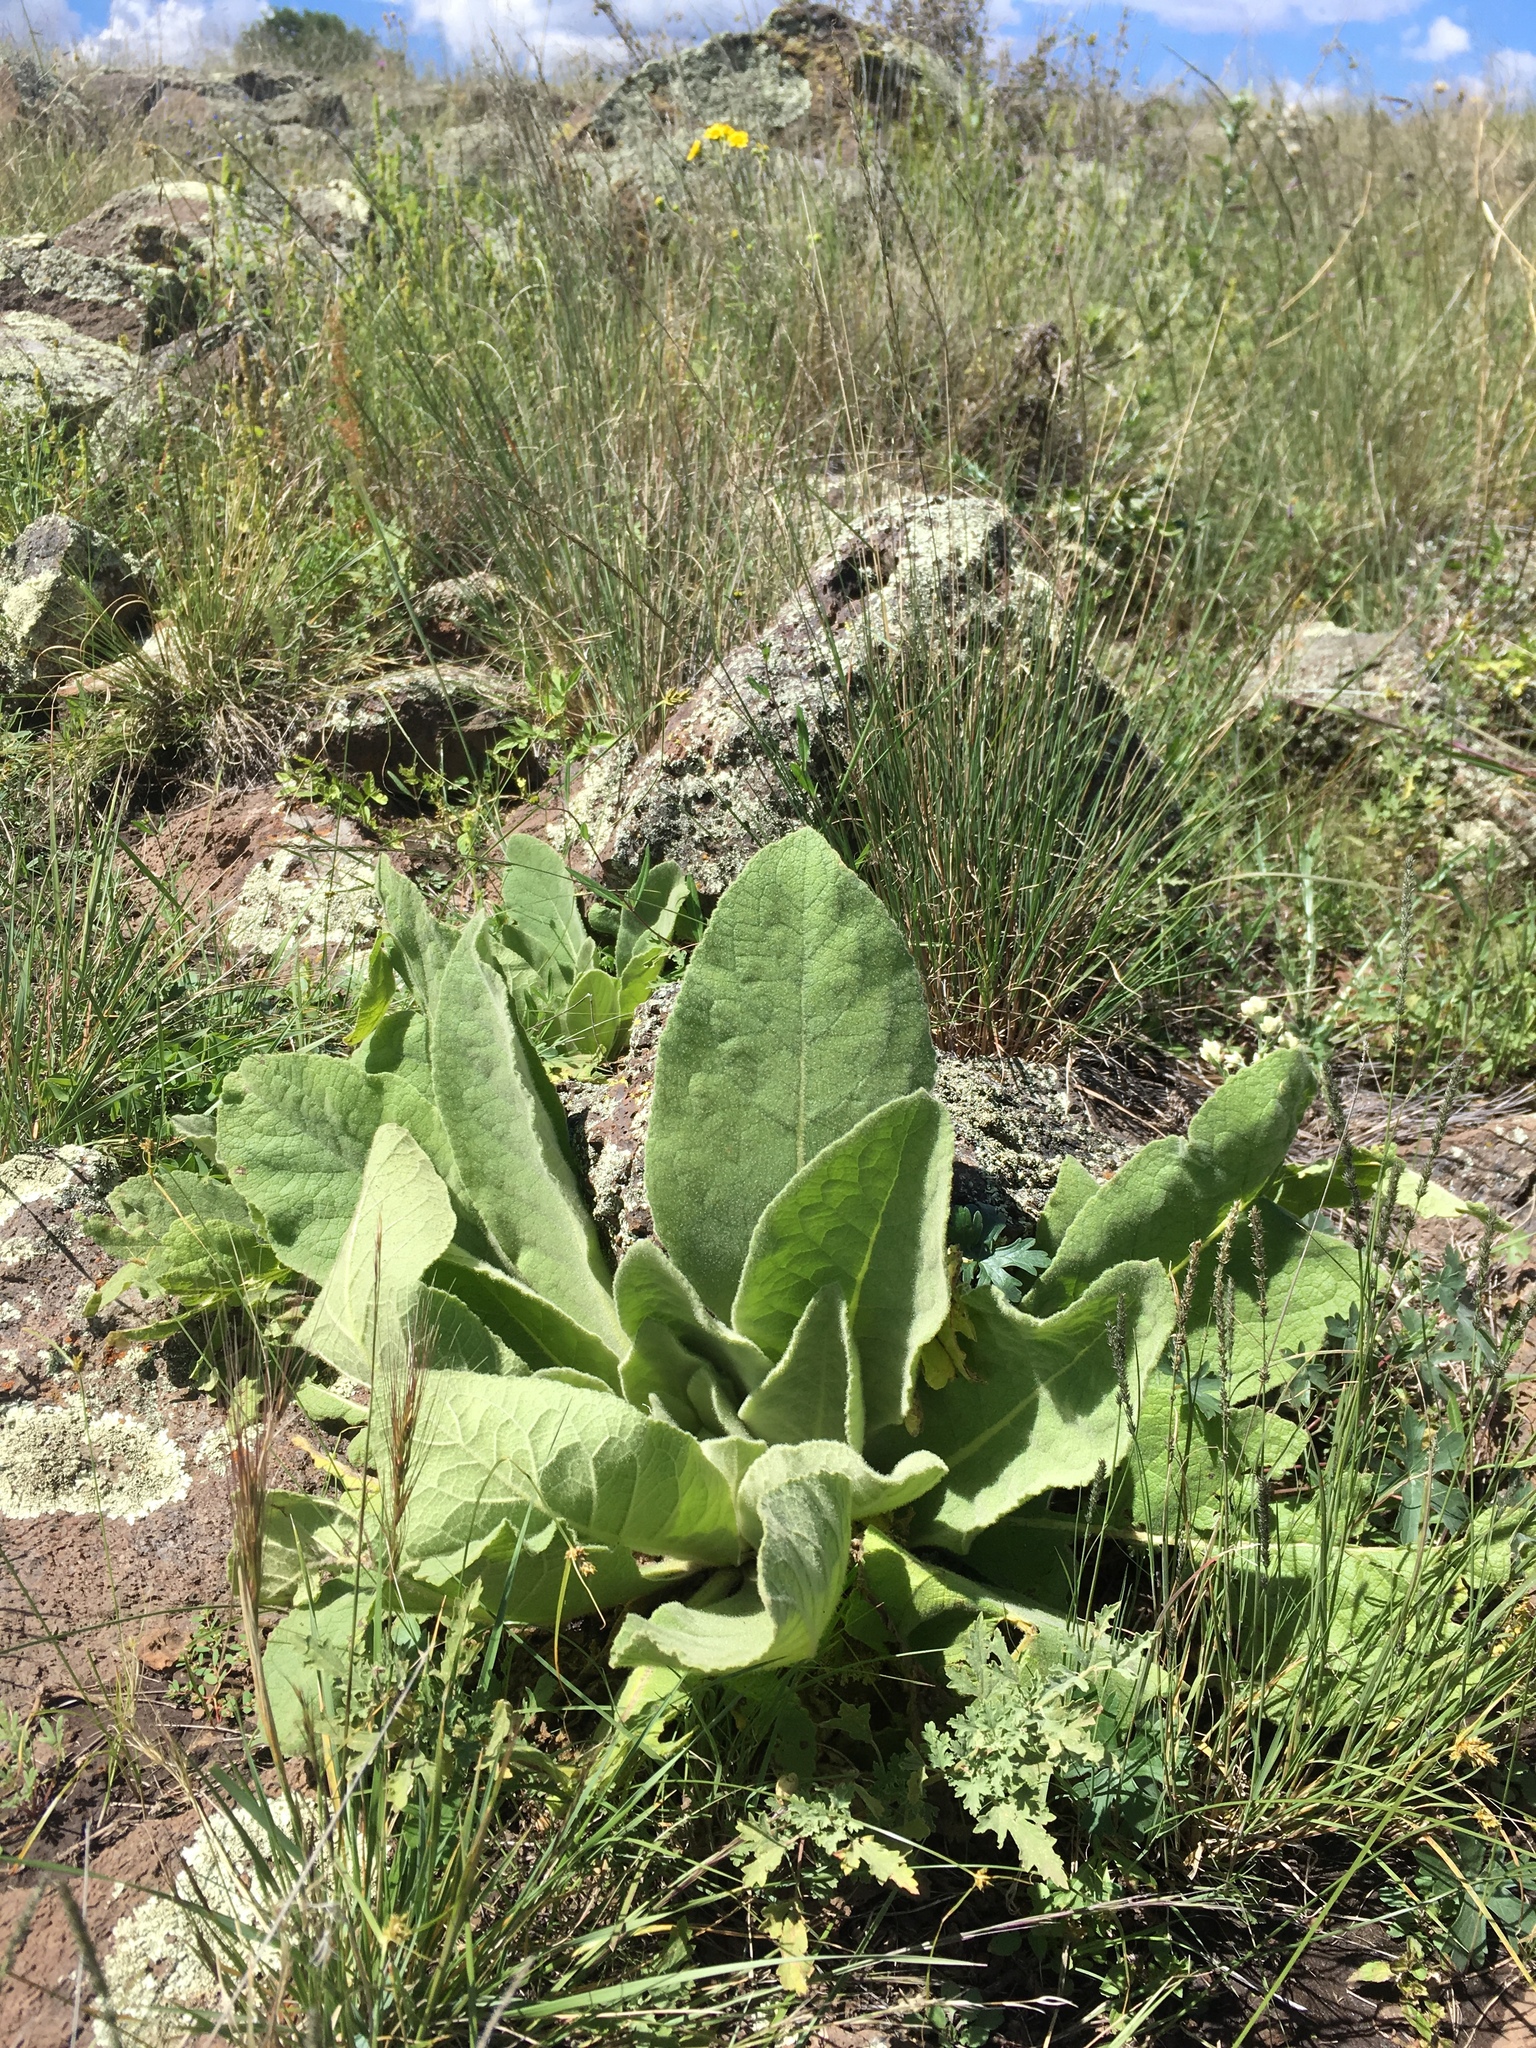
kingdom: Plantae
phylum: Tracheophyta
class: Magnoliopsida
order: Lamiales
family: Scrophulariaceae
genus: Verbascum
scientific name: Verbascum thapsus
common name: Common mullein
